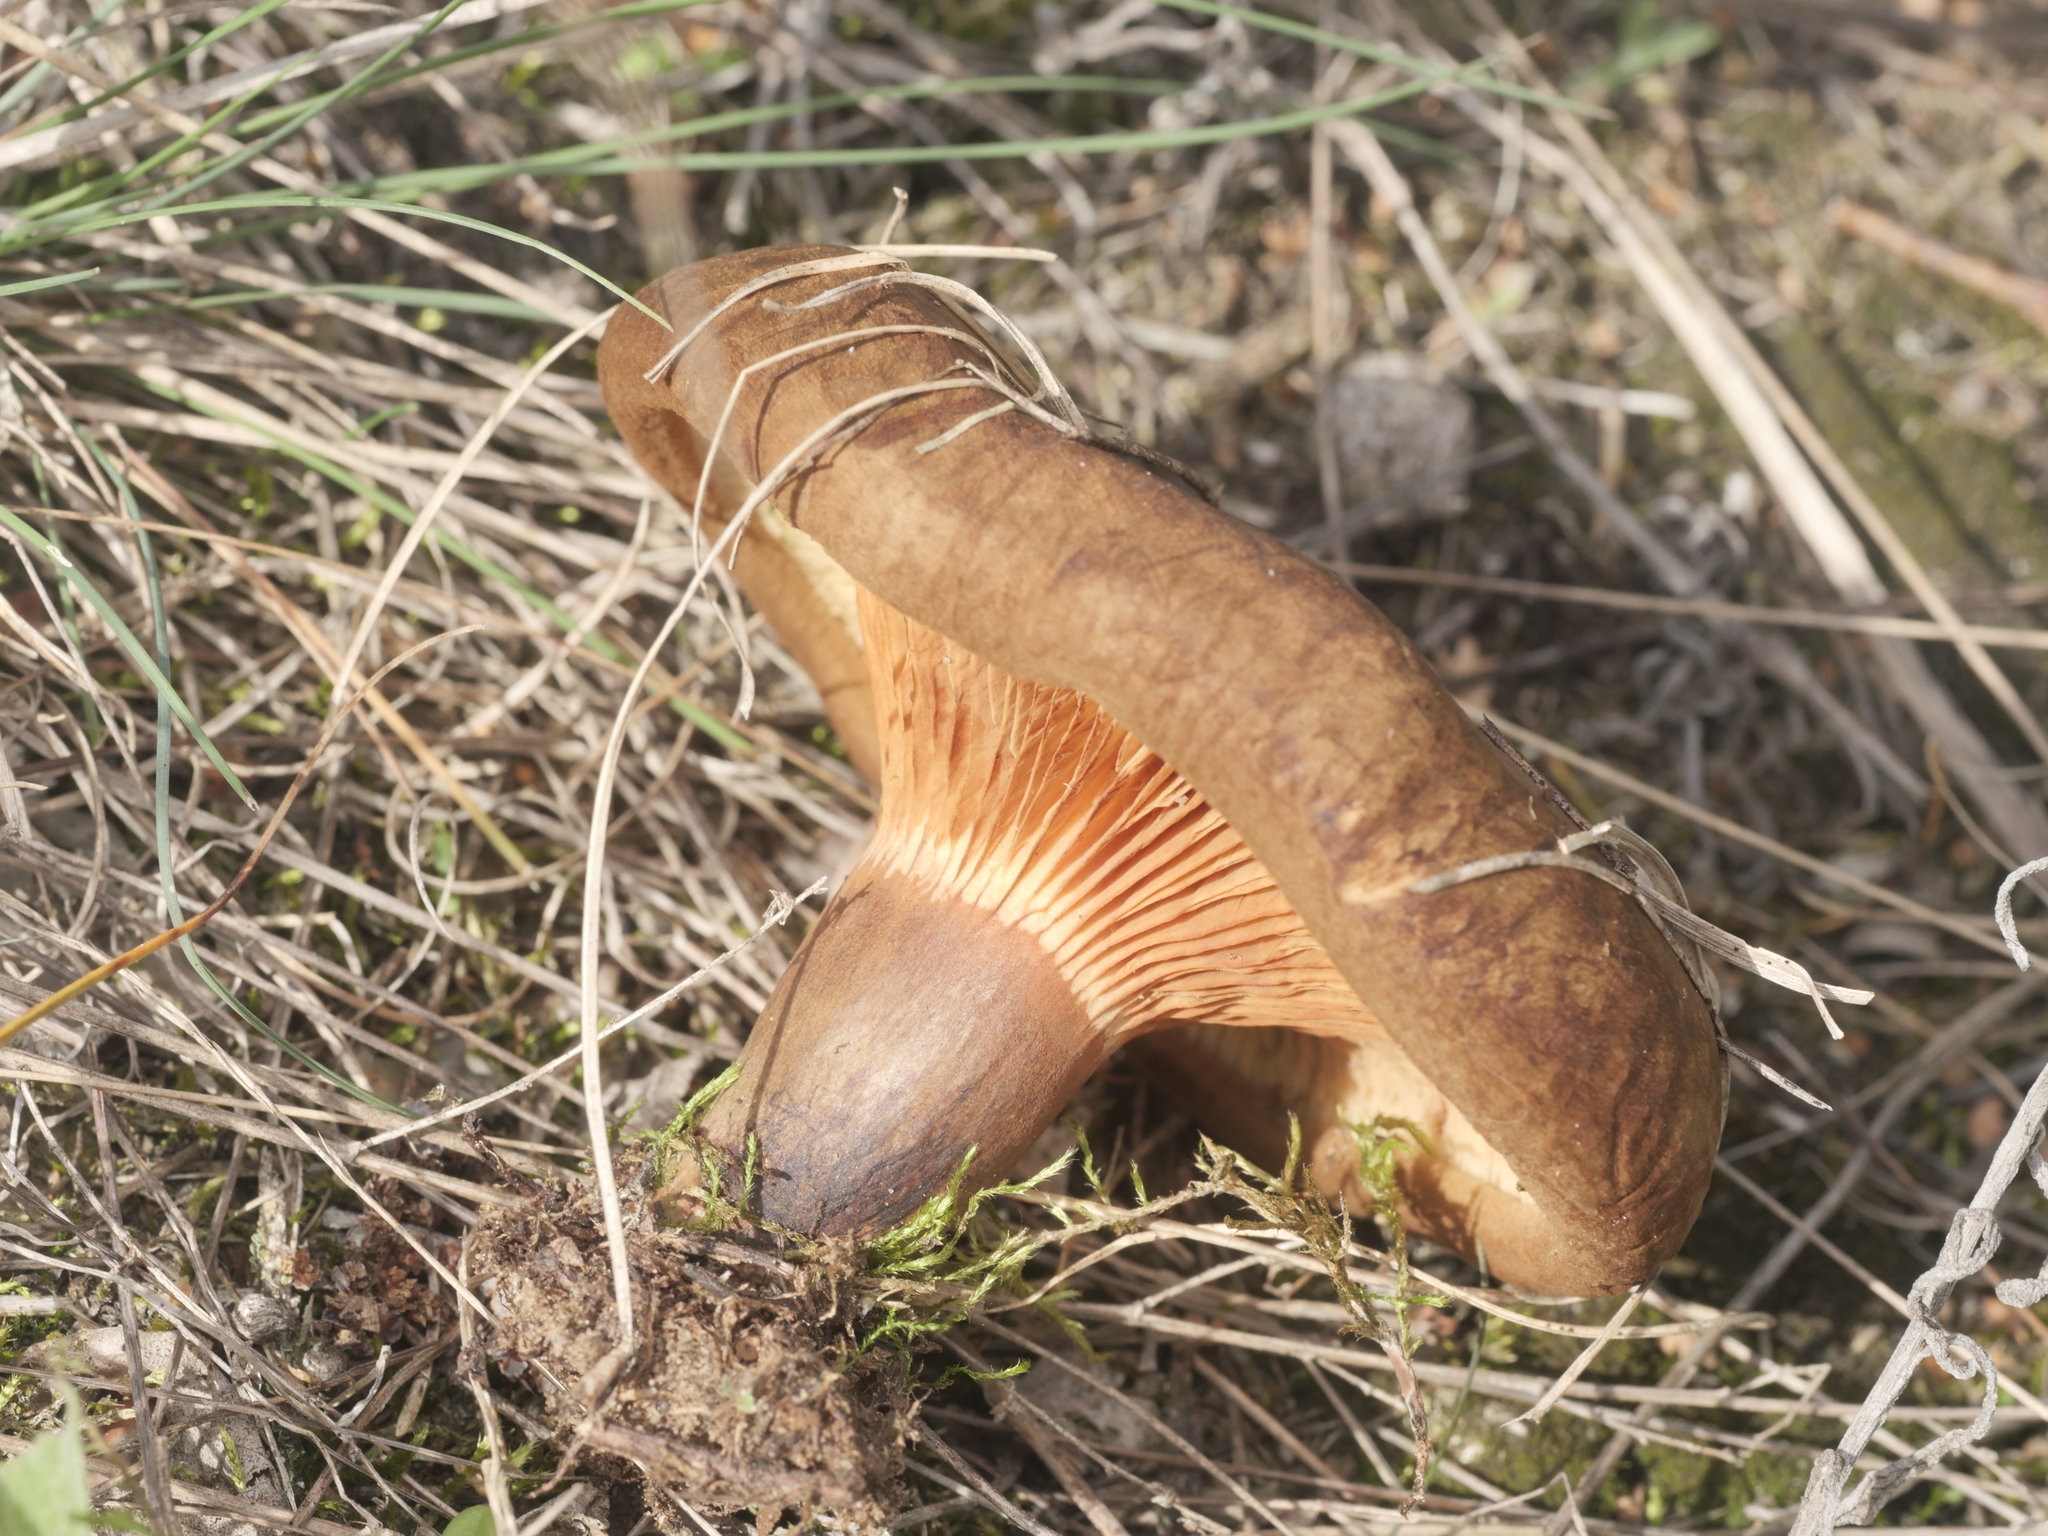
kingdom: Fungi
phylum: Basidiomycota
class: Agaricomycetes
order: Boletales
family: Paxillaceae
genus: Paxillus
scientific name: Paxillus involutus
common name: Brown roll rim
